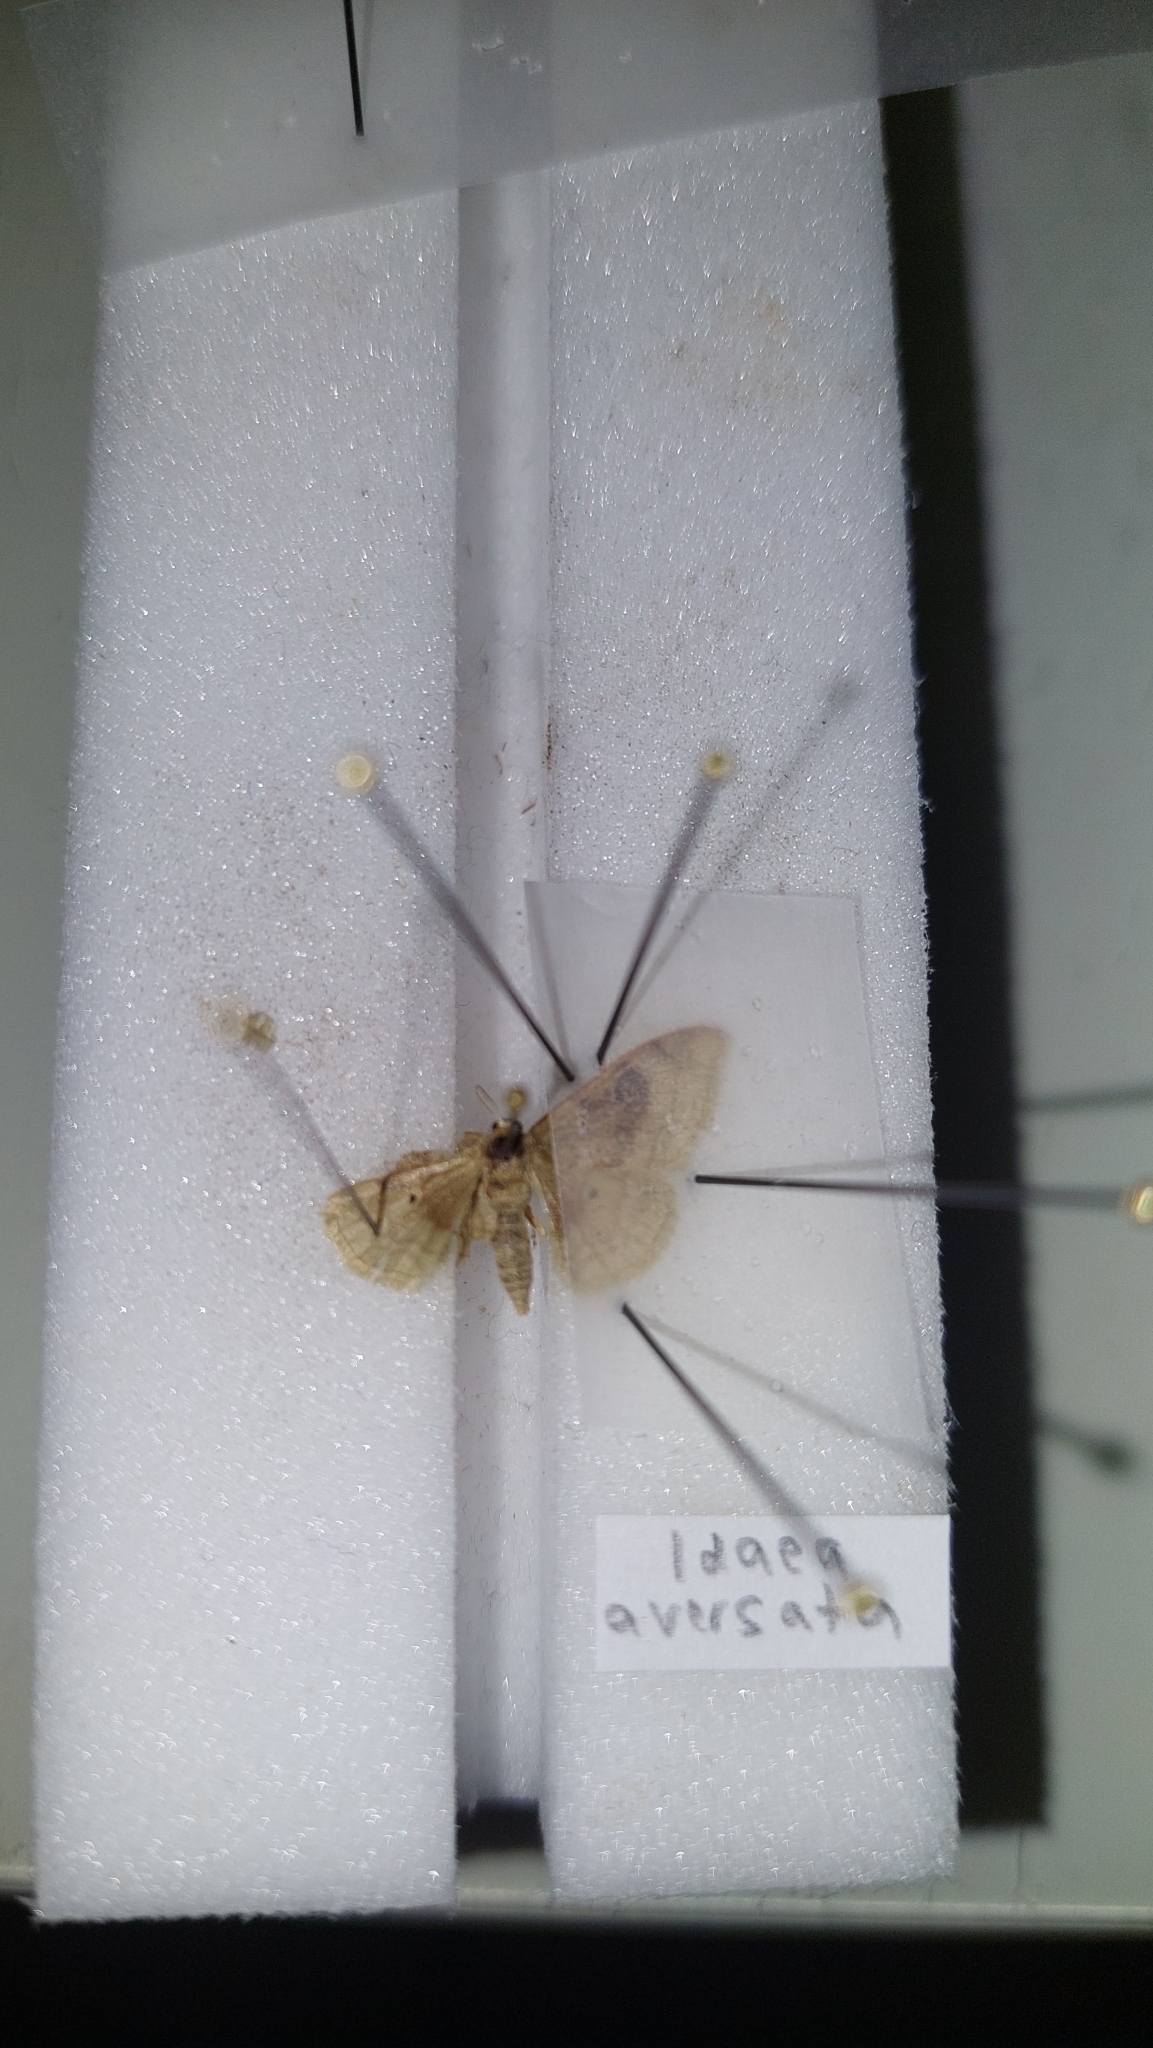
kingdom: Animalia
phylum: Arthropoda
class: Insecta
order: Lepidoptera
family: Geometridae
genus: Idaea
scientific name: Idaea degeneraria
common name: Portland ribbon wave
